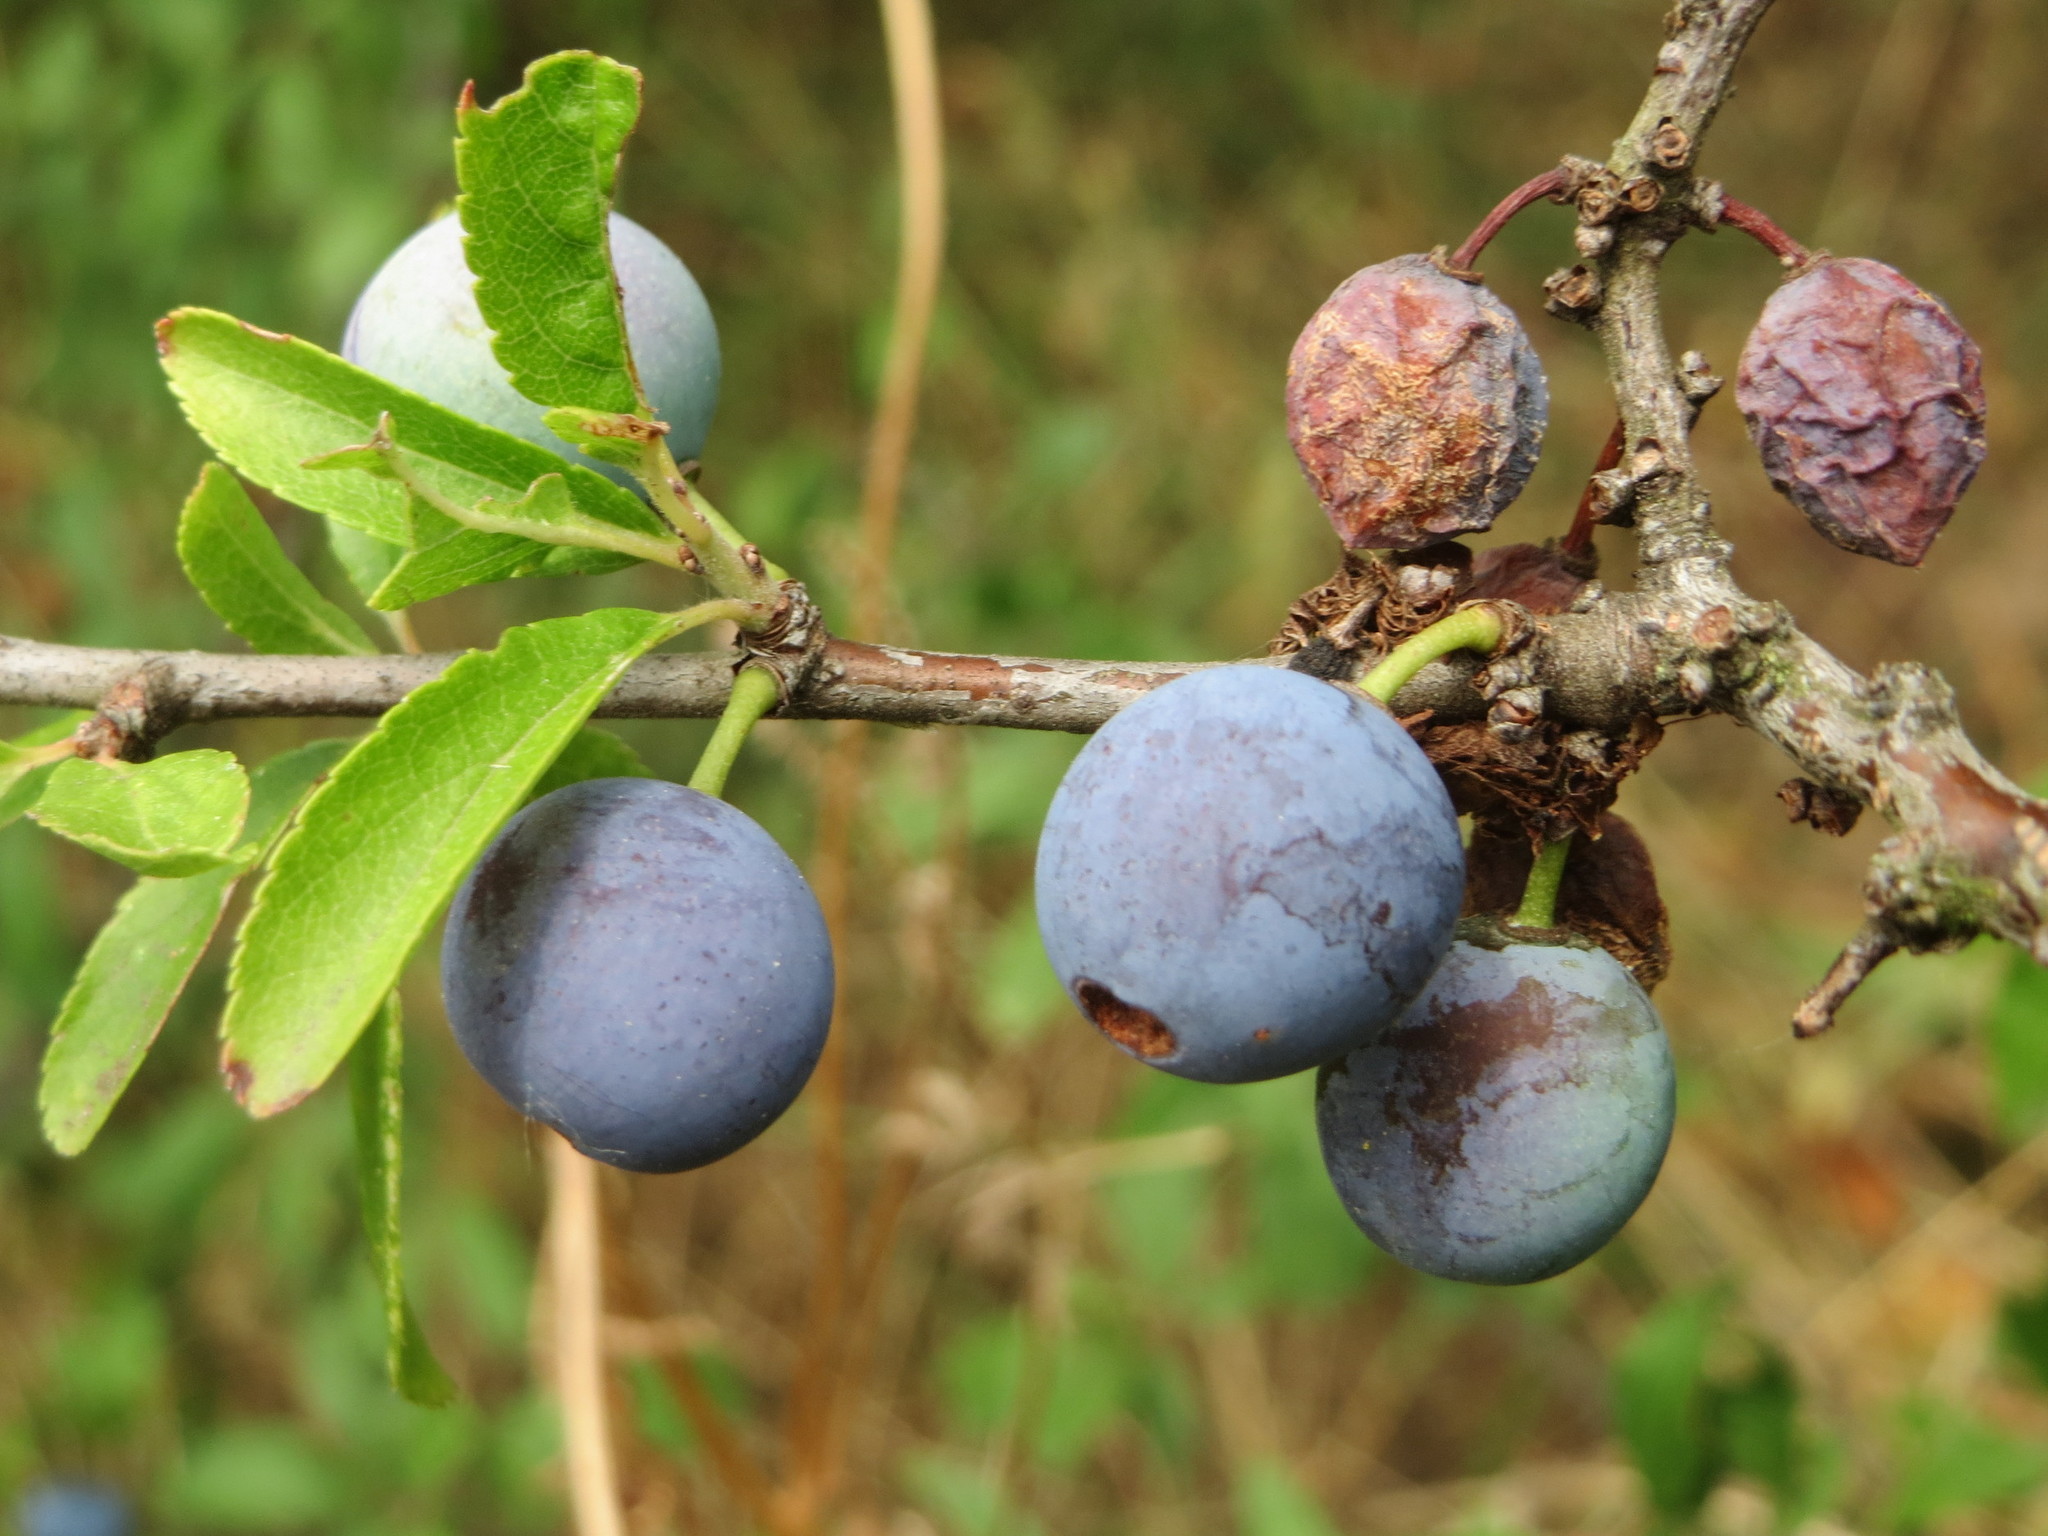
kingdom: Plantae
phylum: Tracheophyta
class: Magnoliopsida
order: Rosales
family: Rosaceae
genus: Prunus
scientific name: Prunus spinosa
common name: Blackthorn
